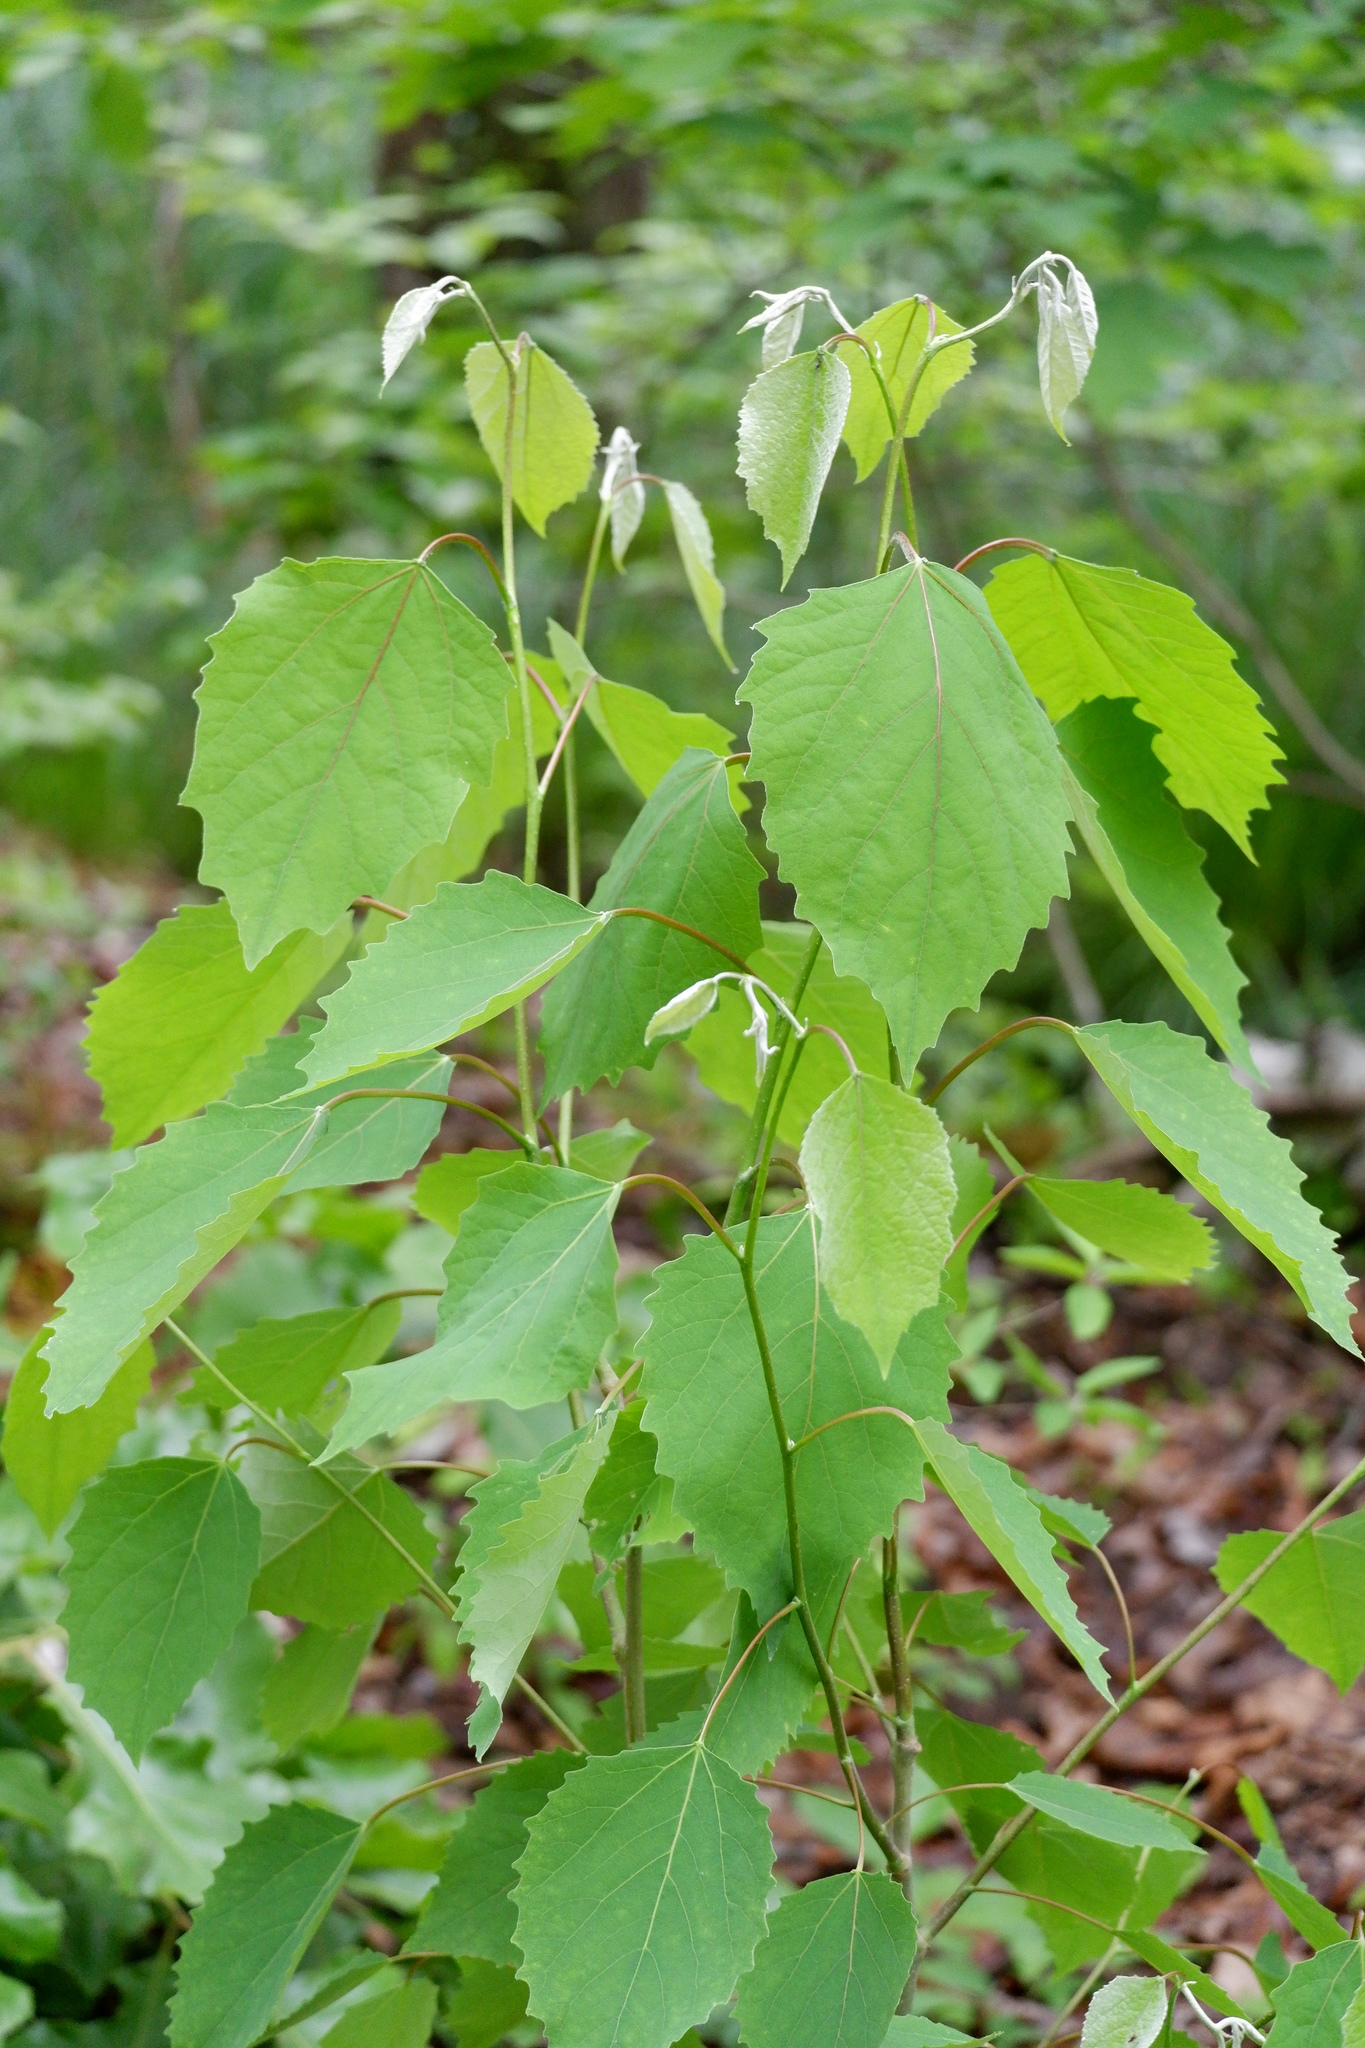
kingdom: Plantae
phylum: Tracheophyta
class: Magnoliopsida
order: Malpighiales
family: Salicaceae
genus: Populus
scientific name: Populus grandidentata
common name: Bigtooth aspen
